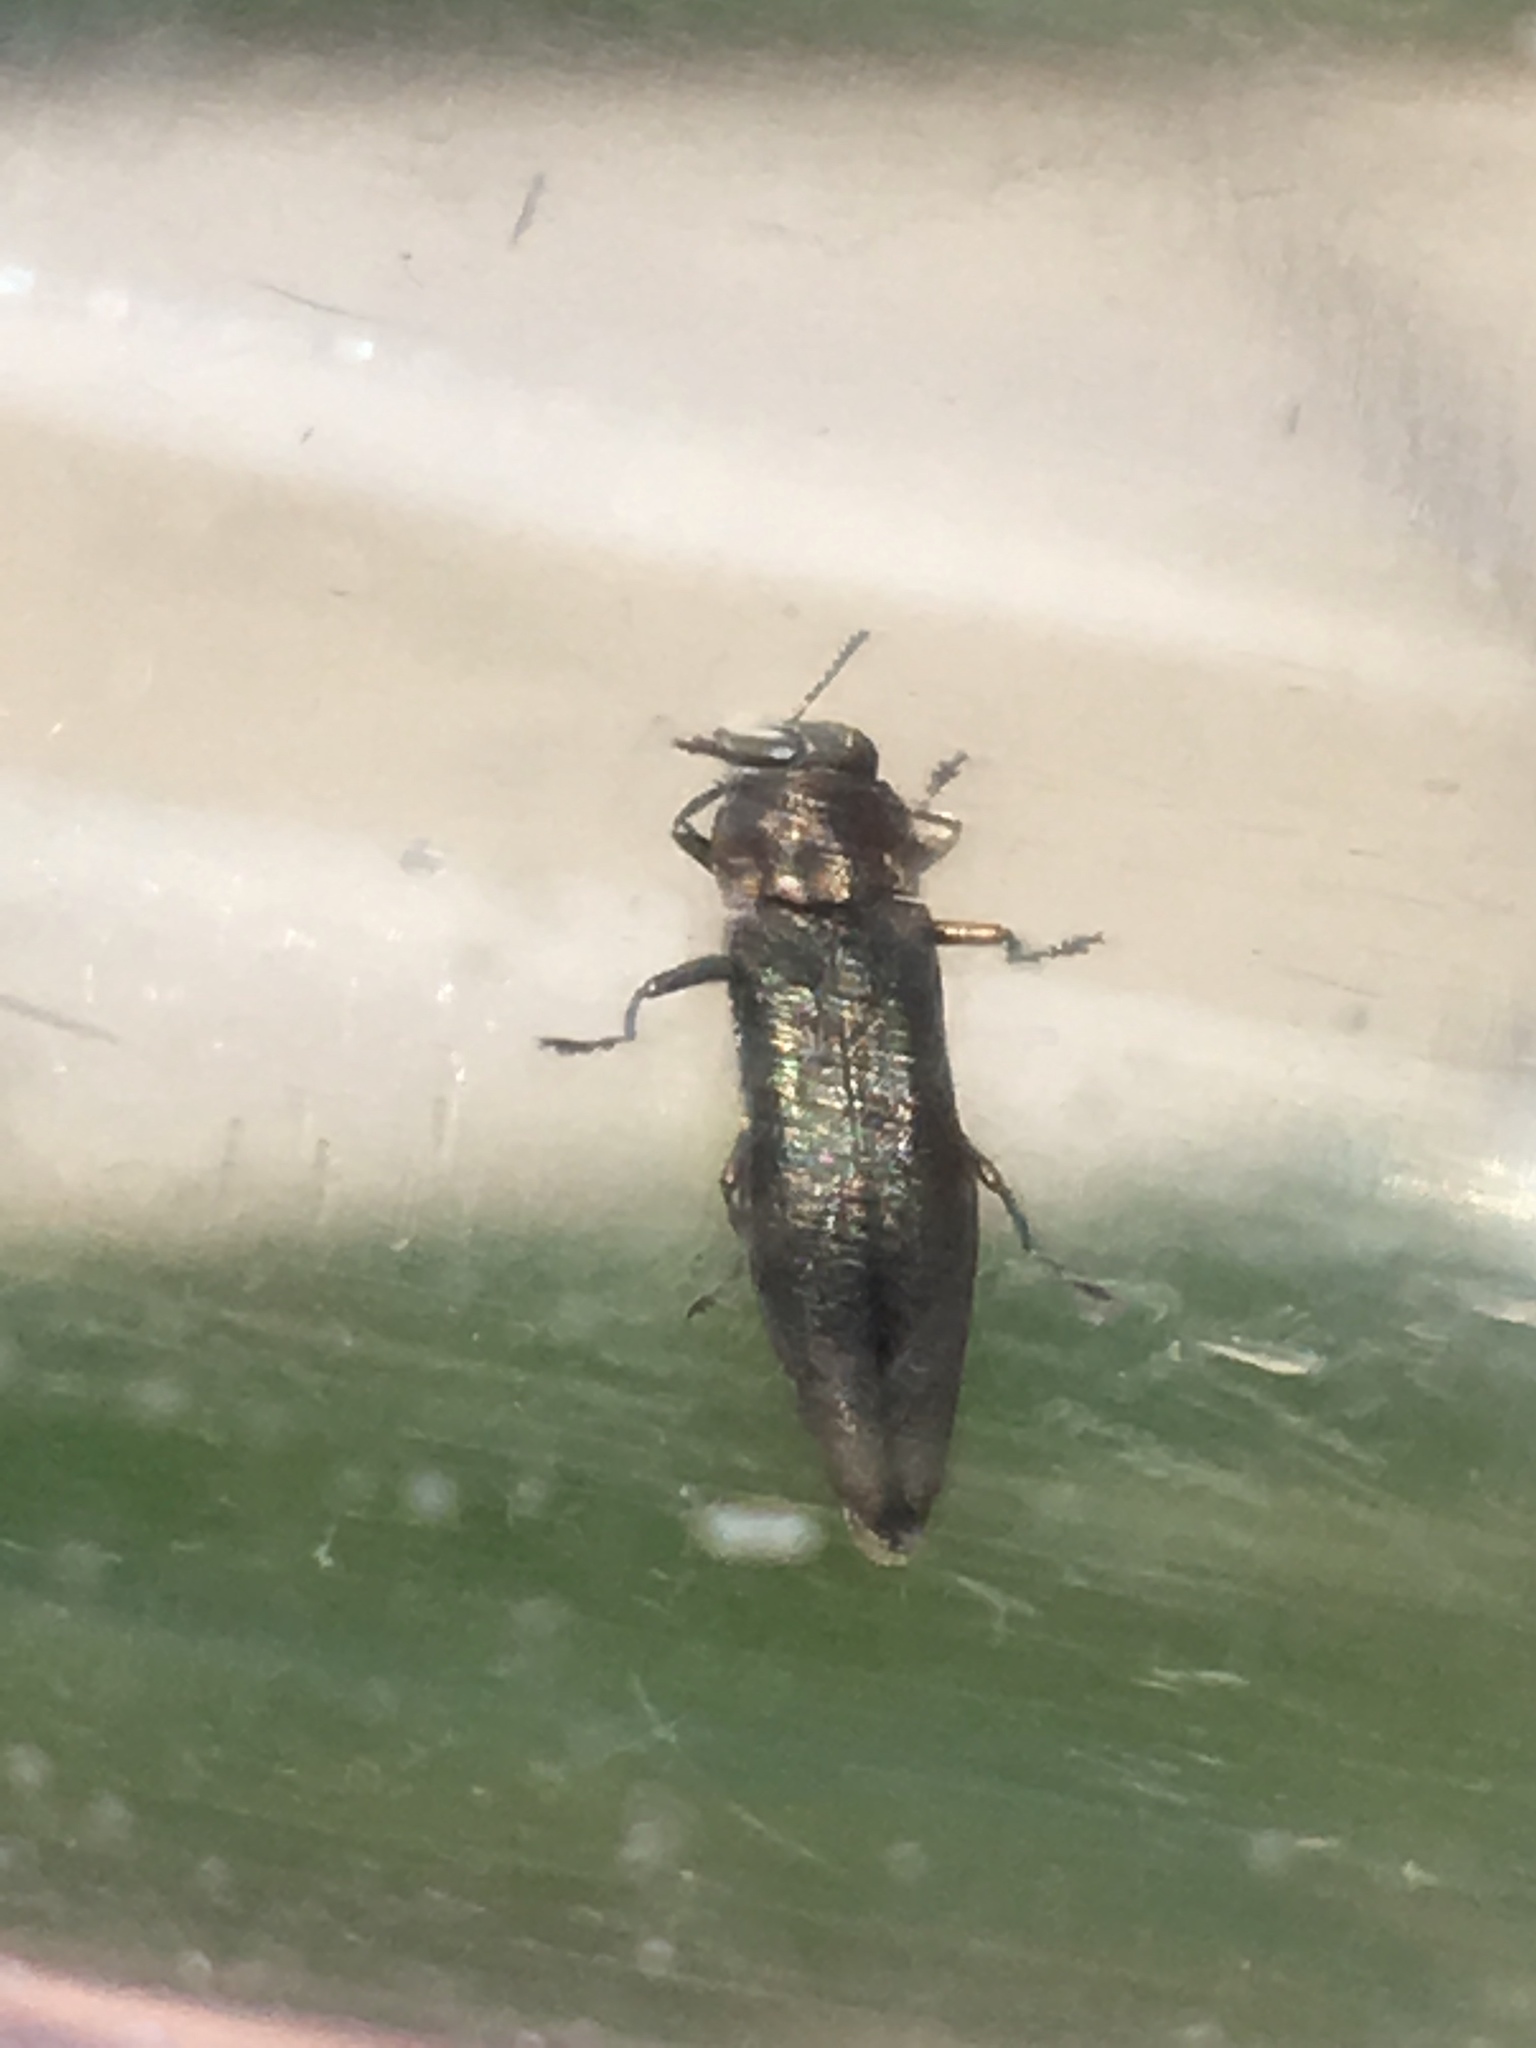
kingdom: Animalia
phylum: Arthropoda
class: Insecta
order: Coleoptera
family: Buprestidae
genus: Agrilus
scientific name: Agrilus anxius
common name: Bronze birch borer
